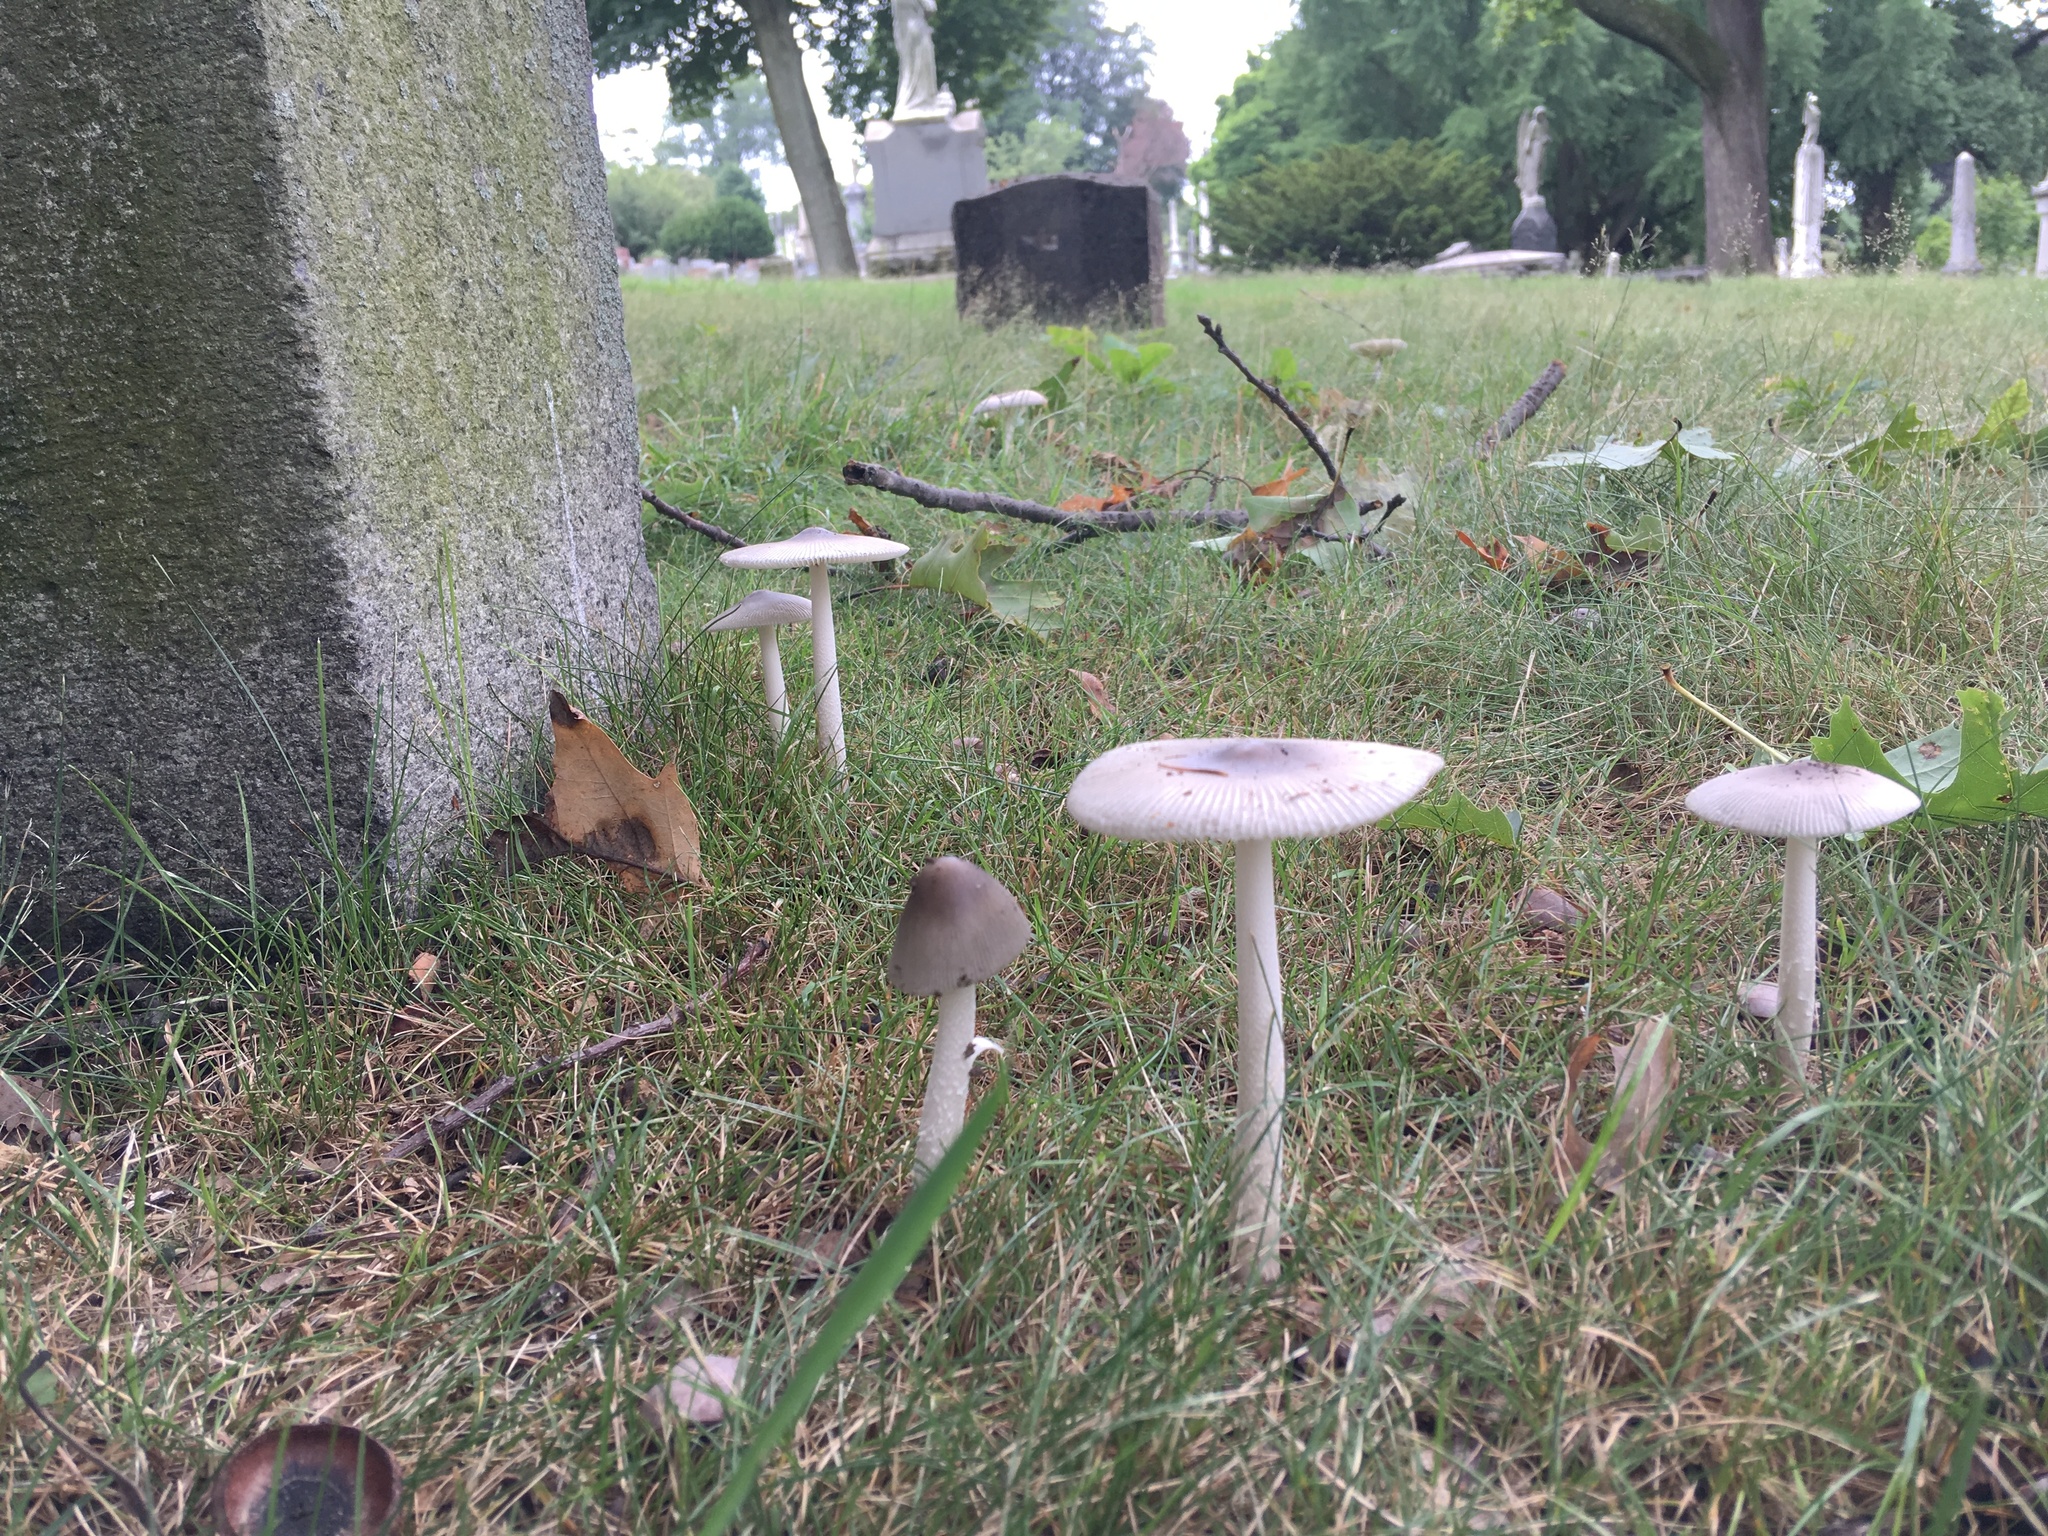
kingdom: Fungi
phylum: Basidiomycota
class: Agaricomycetes
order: Agaricales
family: Amanitaceae
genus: Amanita
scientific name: Amanita vaginata
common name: Grisette
